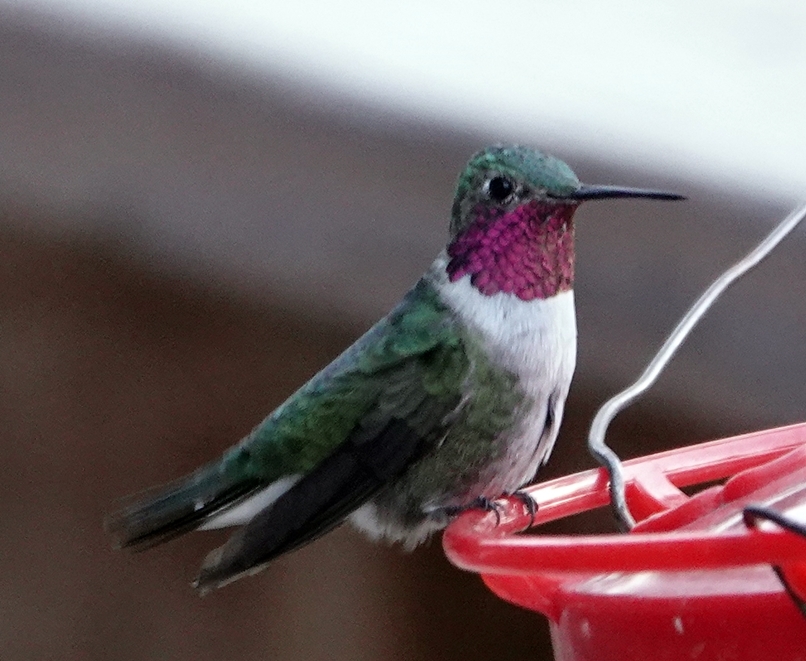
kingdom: Animalia
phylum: Chordata
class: Aves
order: Apodiformes
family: Trochilidae
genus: Selasphorus
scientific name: Selasphorus platycercus
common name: Broad-tailed hummingbird
